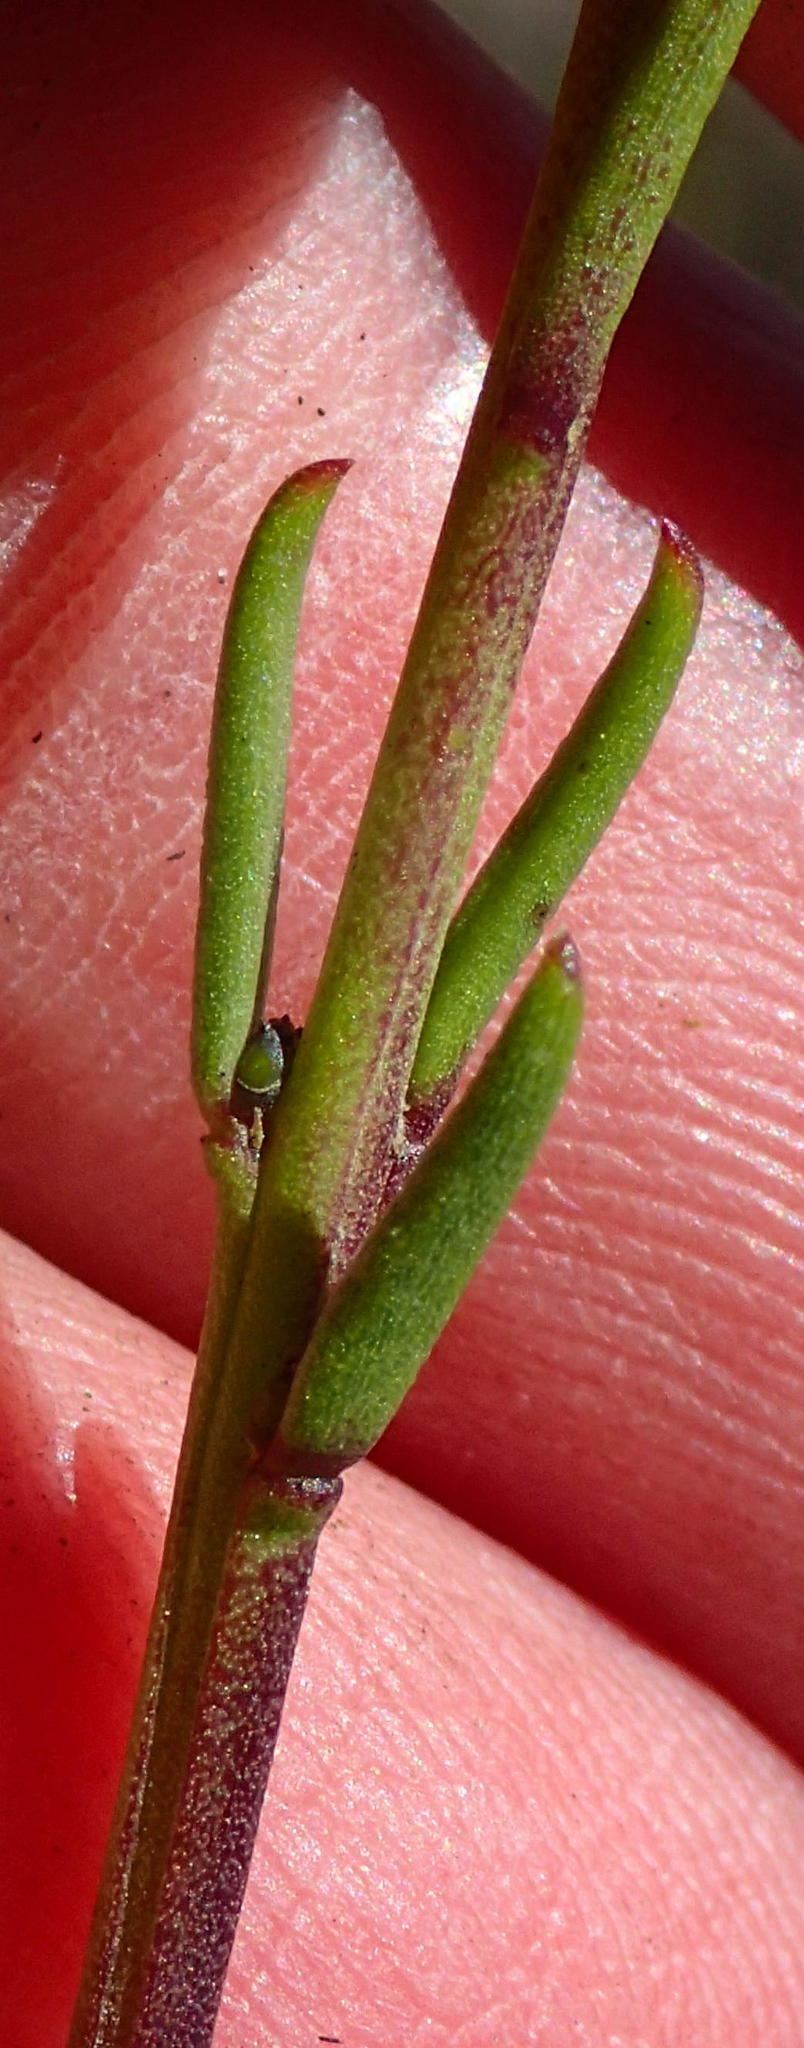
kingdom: Plantae
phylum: Tracheophyta
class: Magnoliopsida
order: Brassicales
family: Brassicaceae
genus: Heliophila
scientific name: Heliophila elongata
